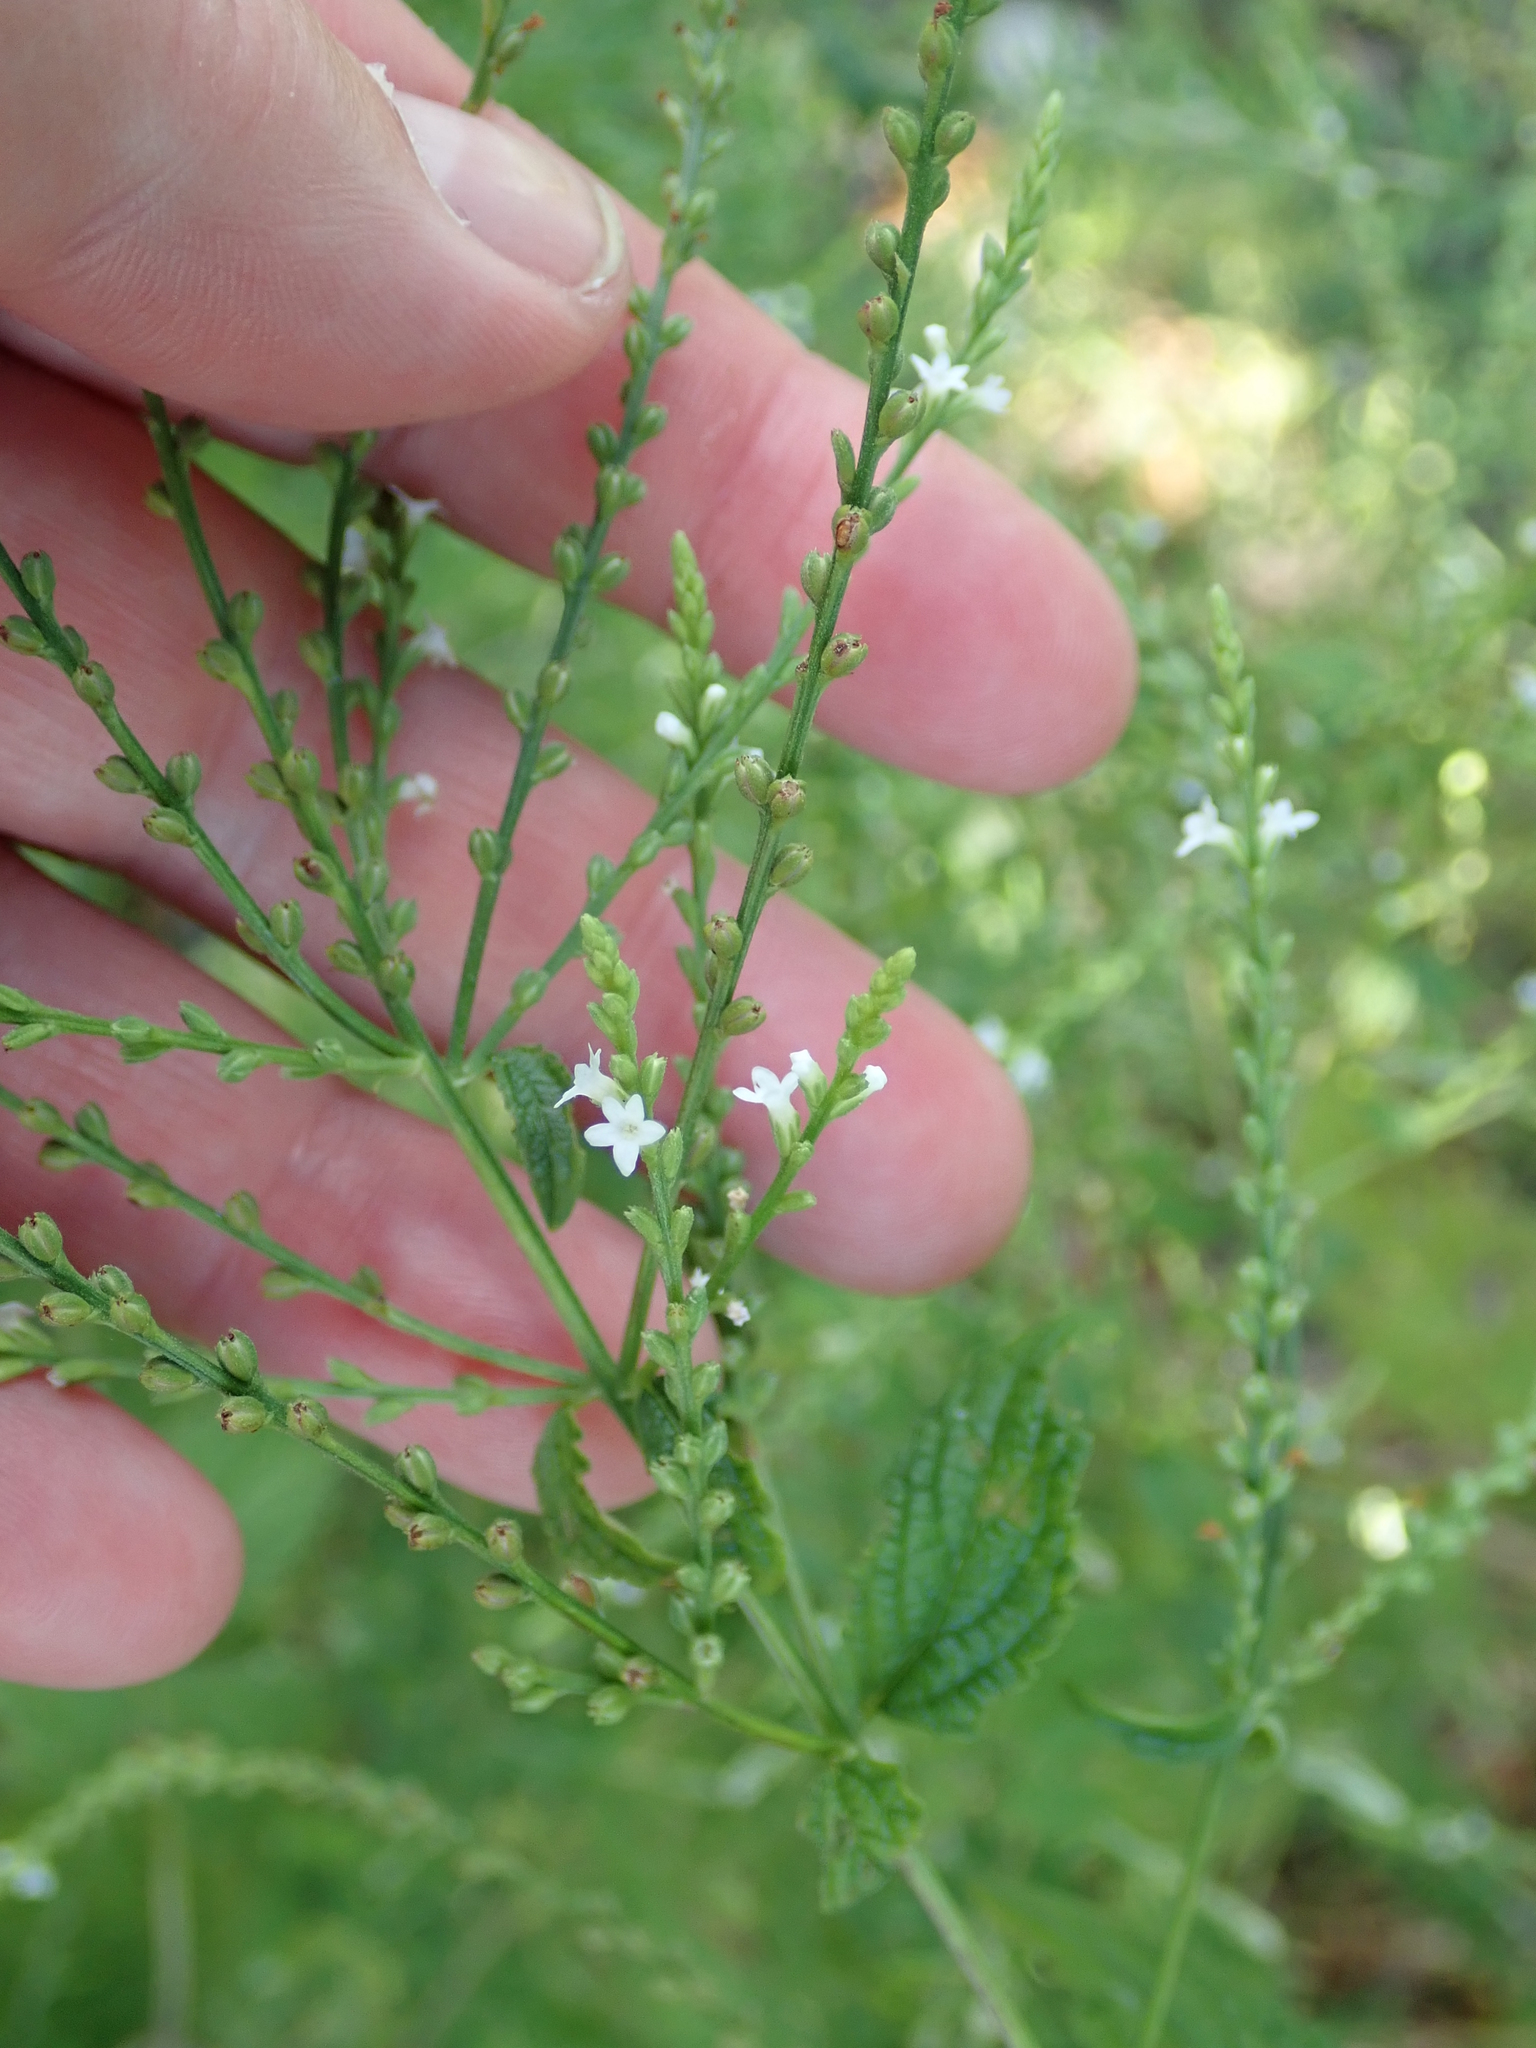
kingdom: Plantae
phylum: Tracheophyta
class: Magnoliopsida
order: Lamiales
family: Verbenaceae
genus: Verbena
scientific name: Verbena urticifolia
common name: Nettle-leaved vervain
